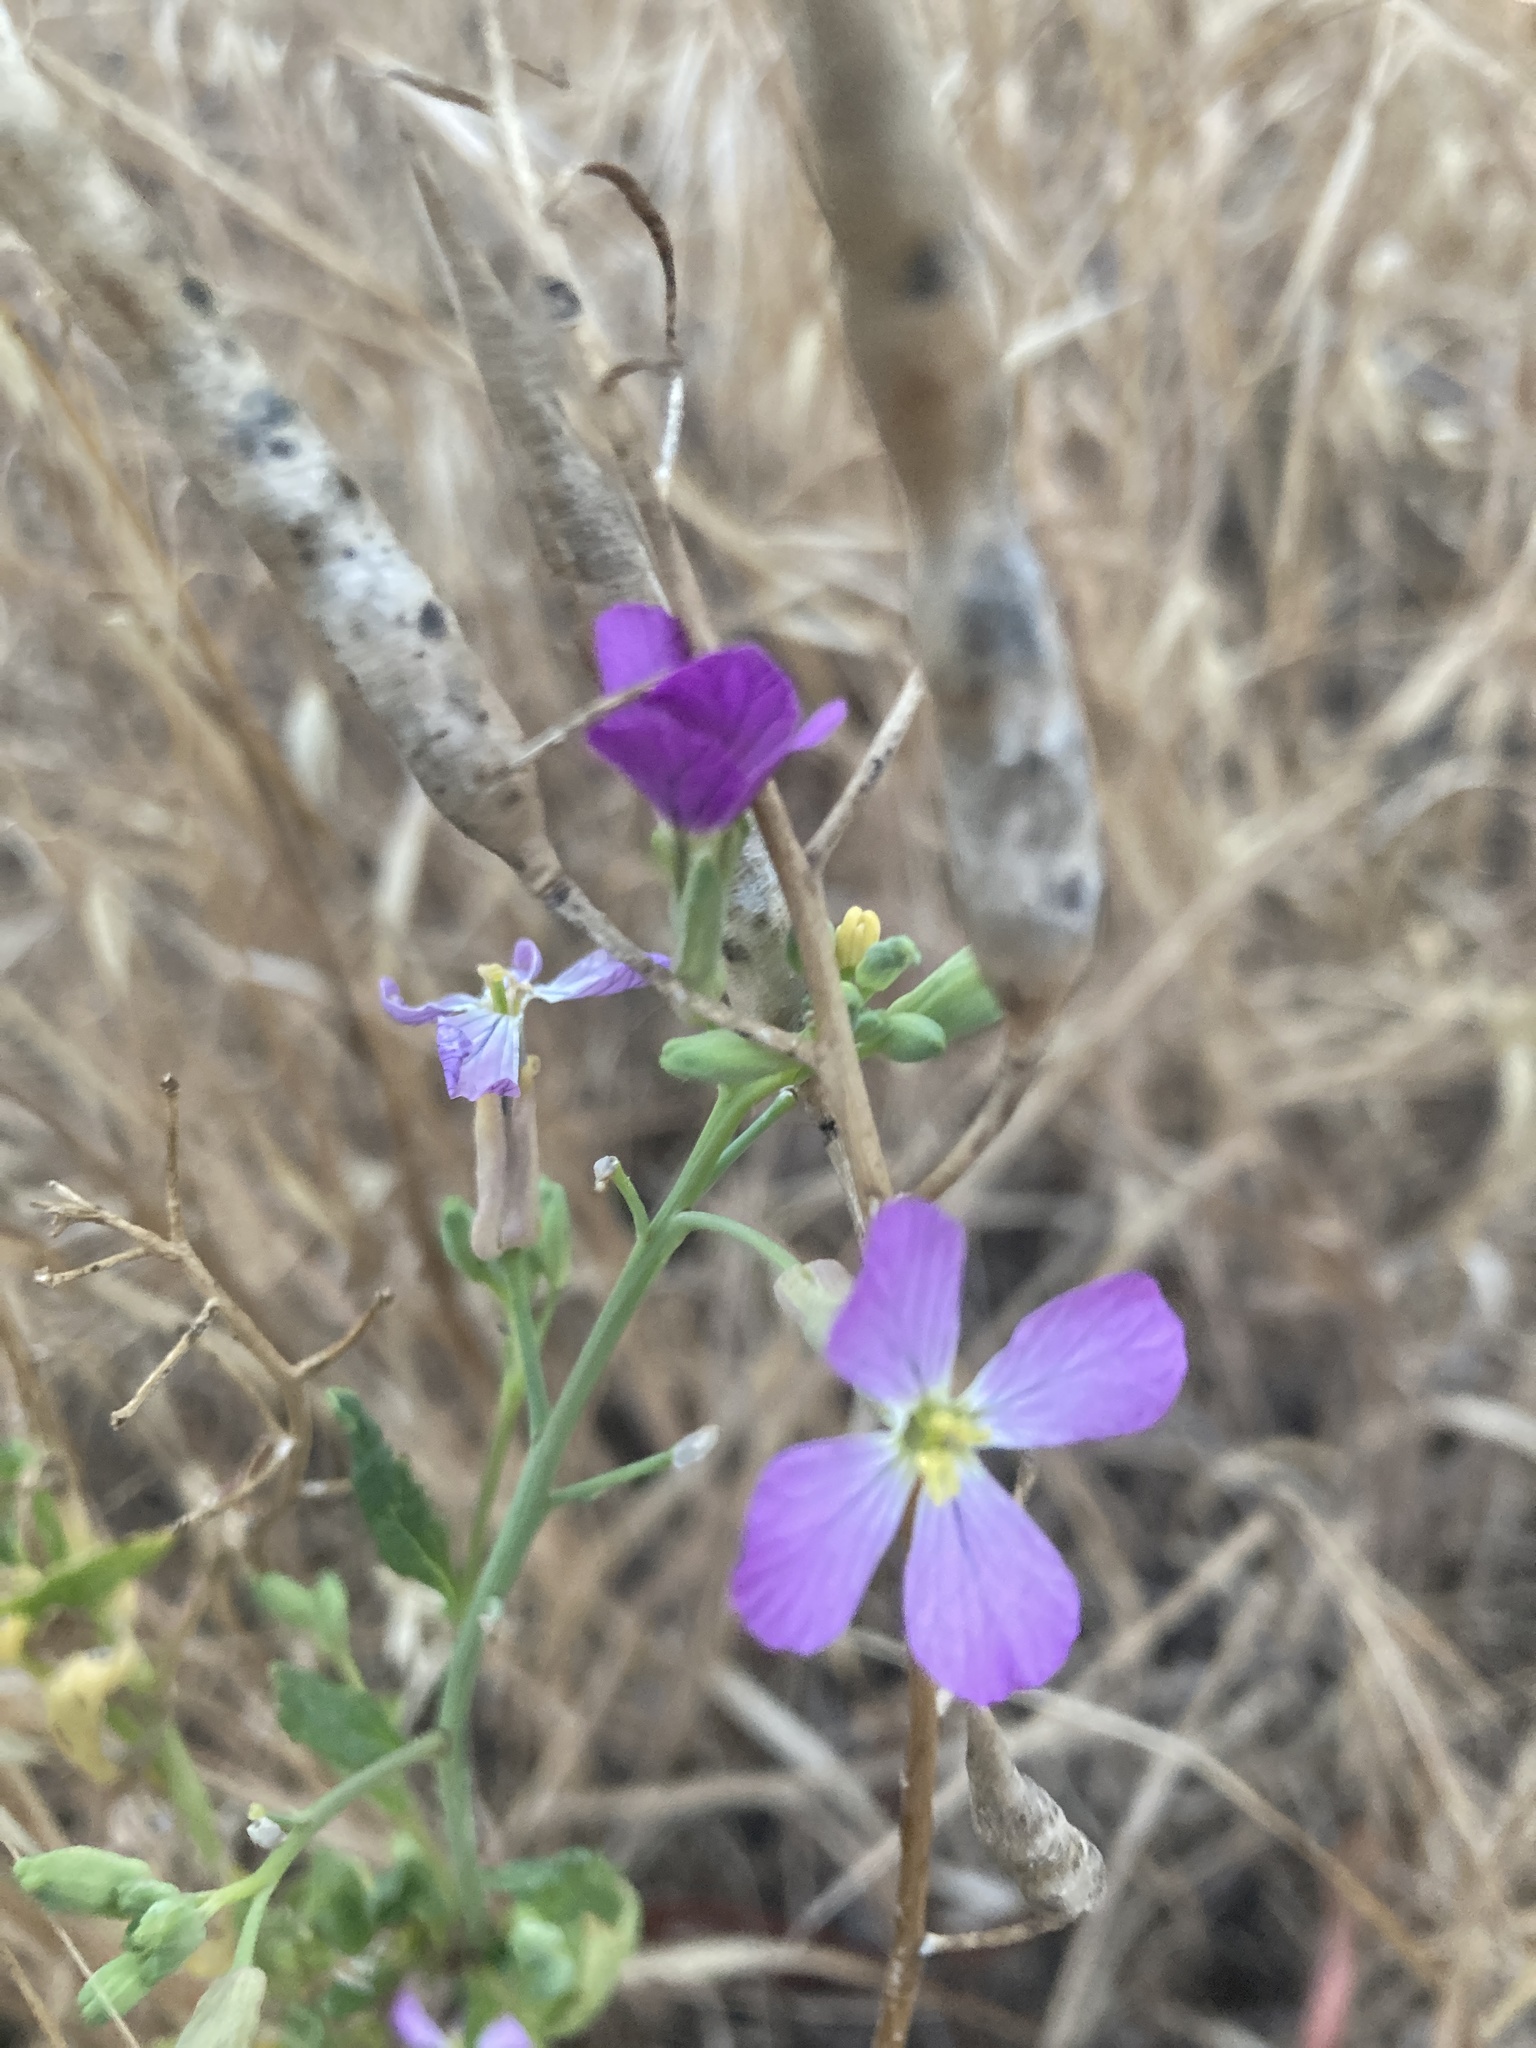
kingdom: Plantae
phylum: Tracheophyta
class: Magnoliopsida
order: Brassicales
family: Brassicaceae
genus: Raphanus
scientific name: Raphanus sativus
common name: Cultivated radish
